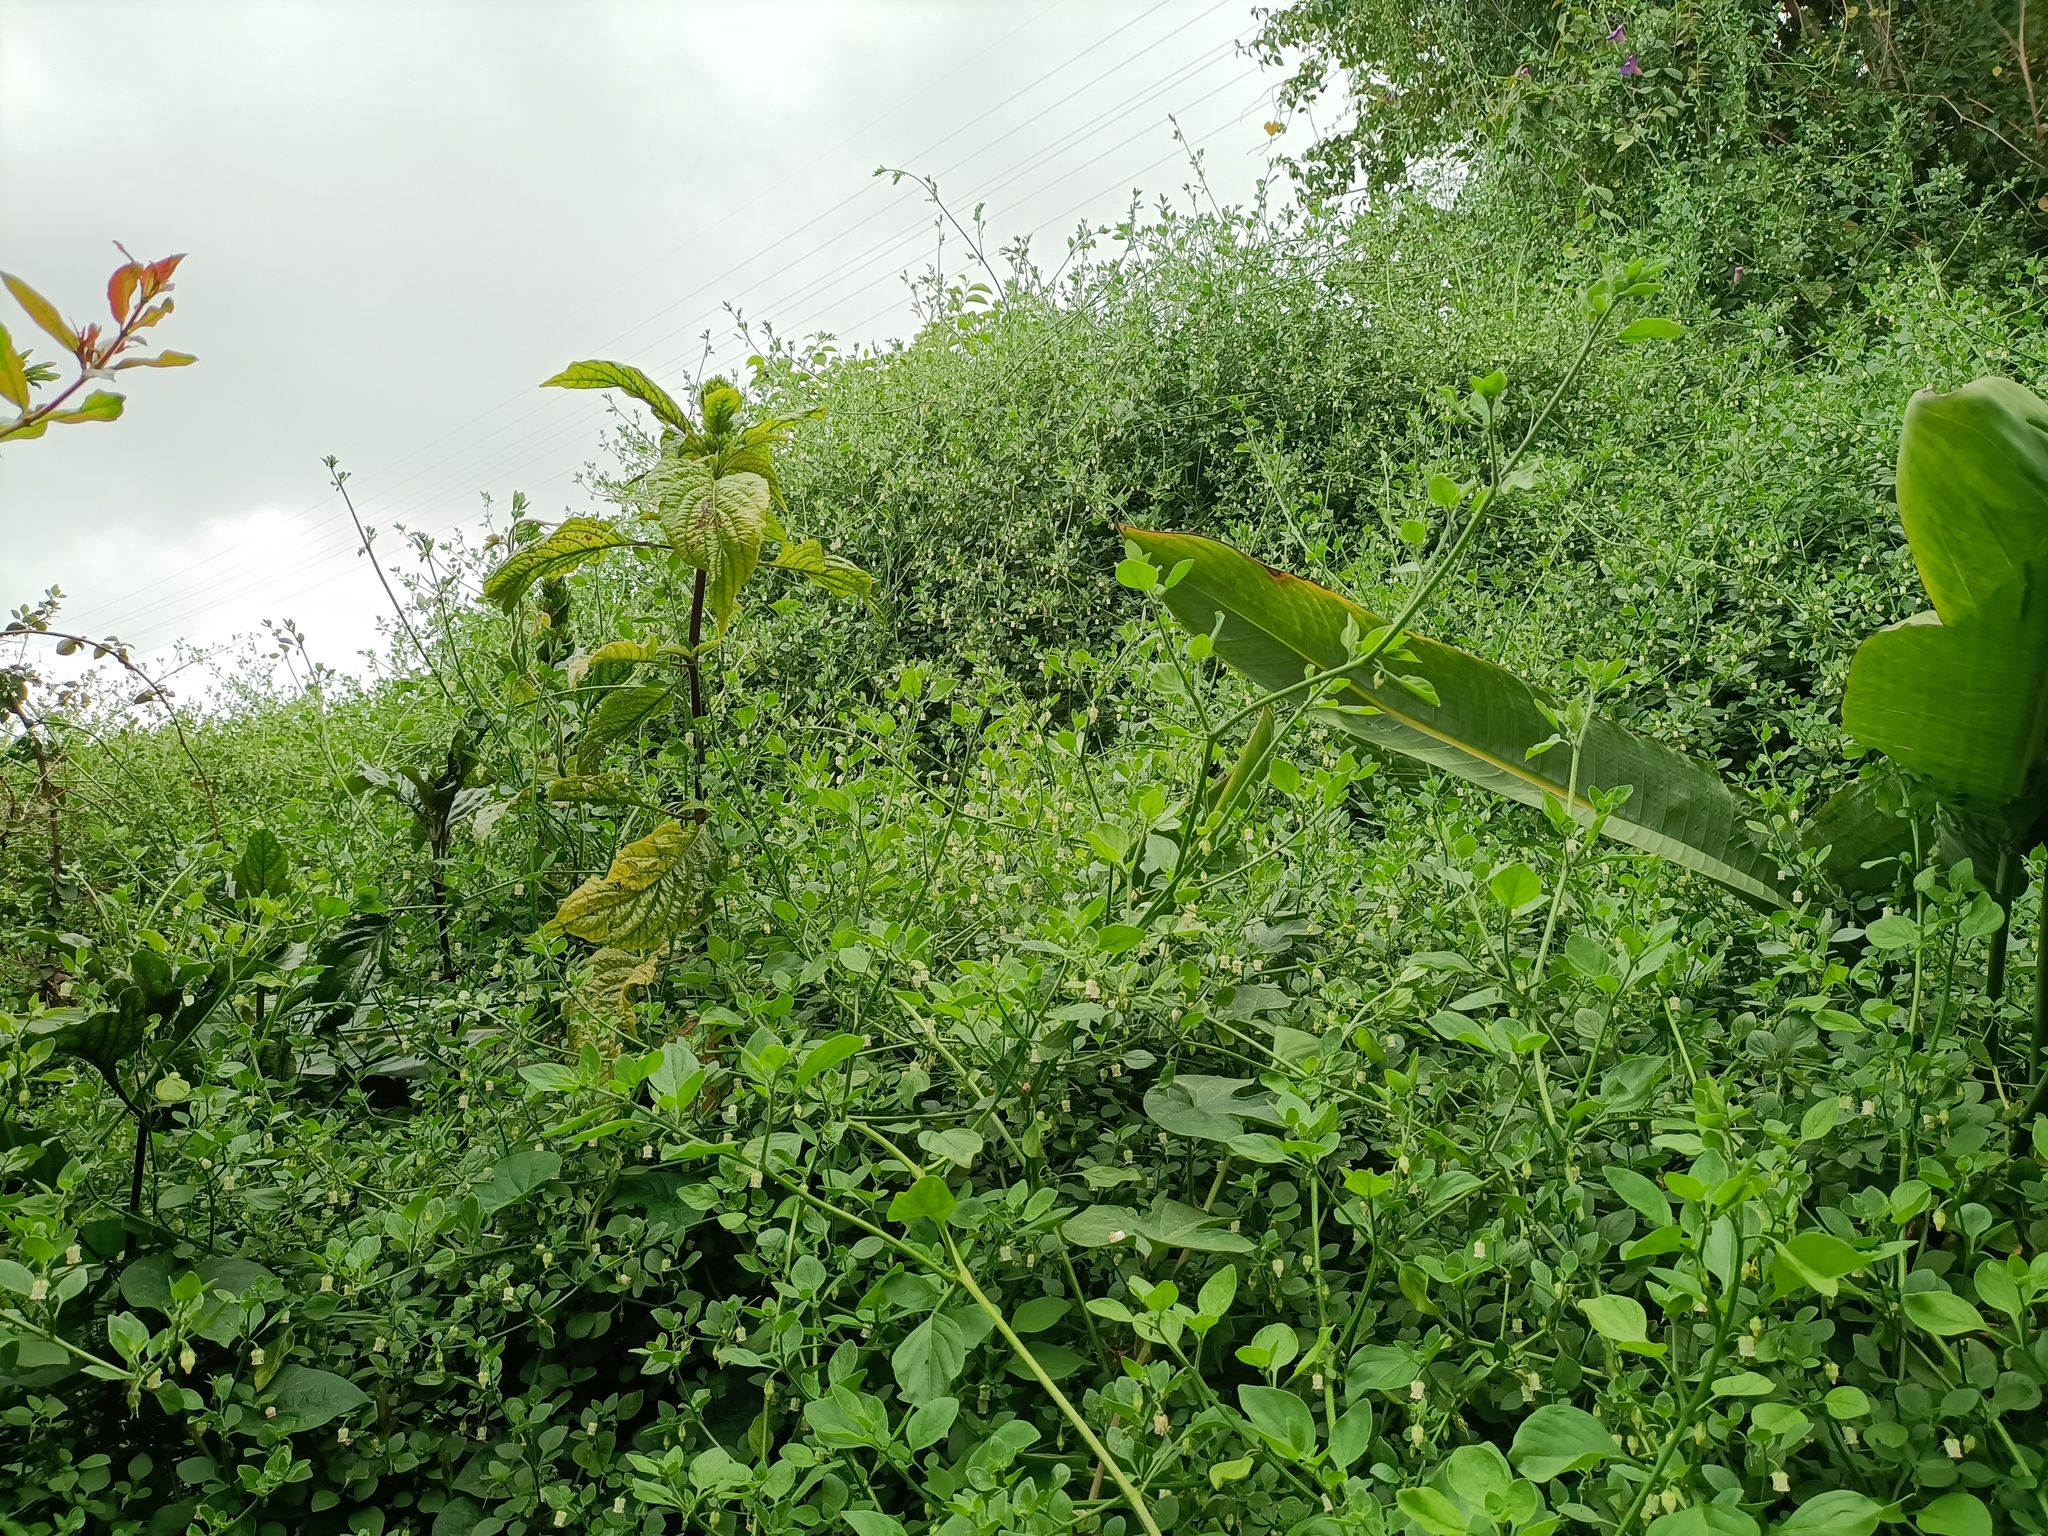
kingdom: Plantae
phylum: Tracheophyta
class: Magnoliopsida
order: Solanales
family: Solanaceae
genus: Salpichroa
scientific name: Salpichroa origanifolia
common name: Lily-of-the-valley-vine
